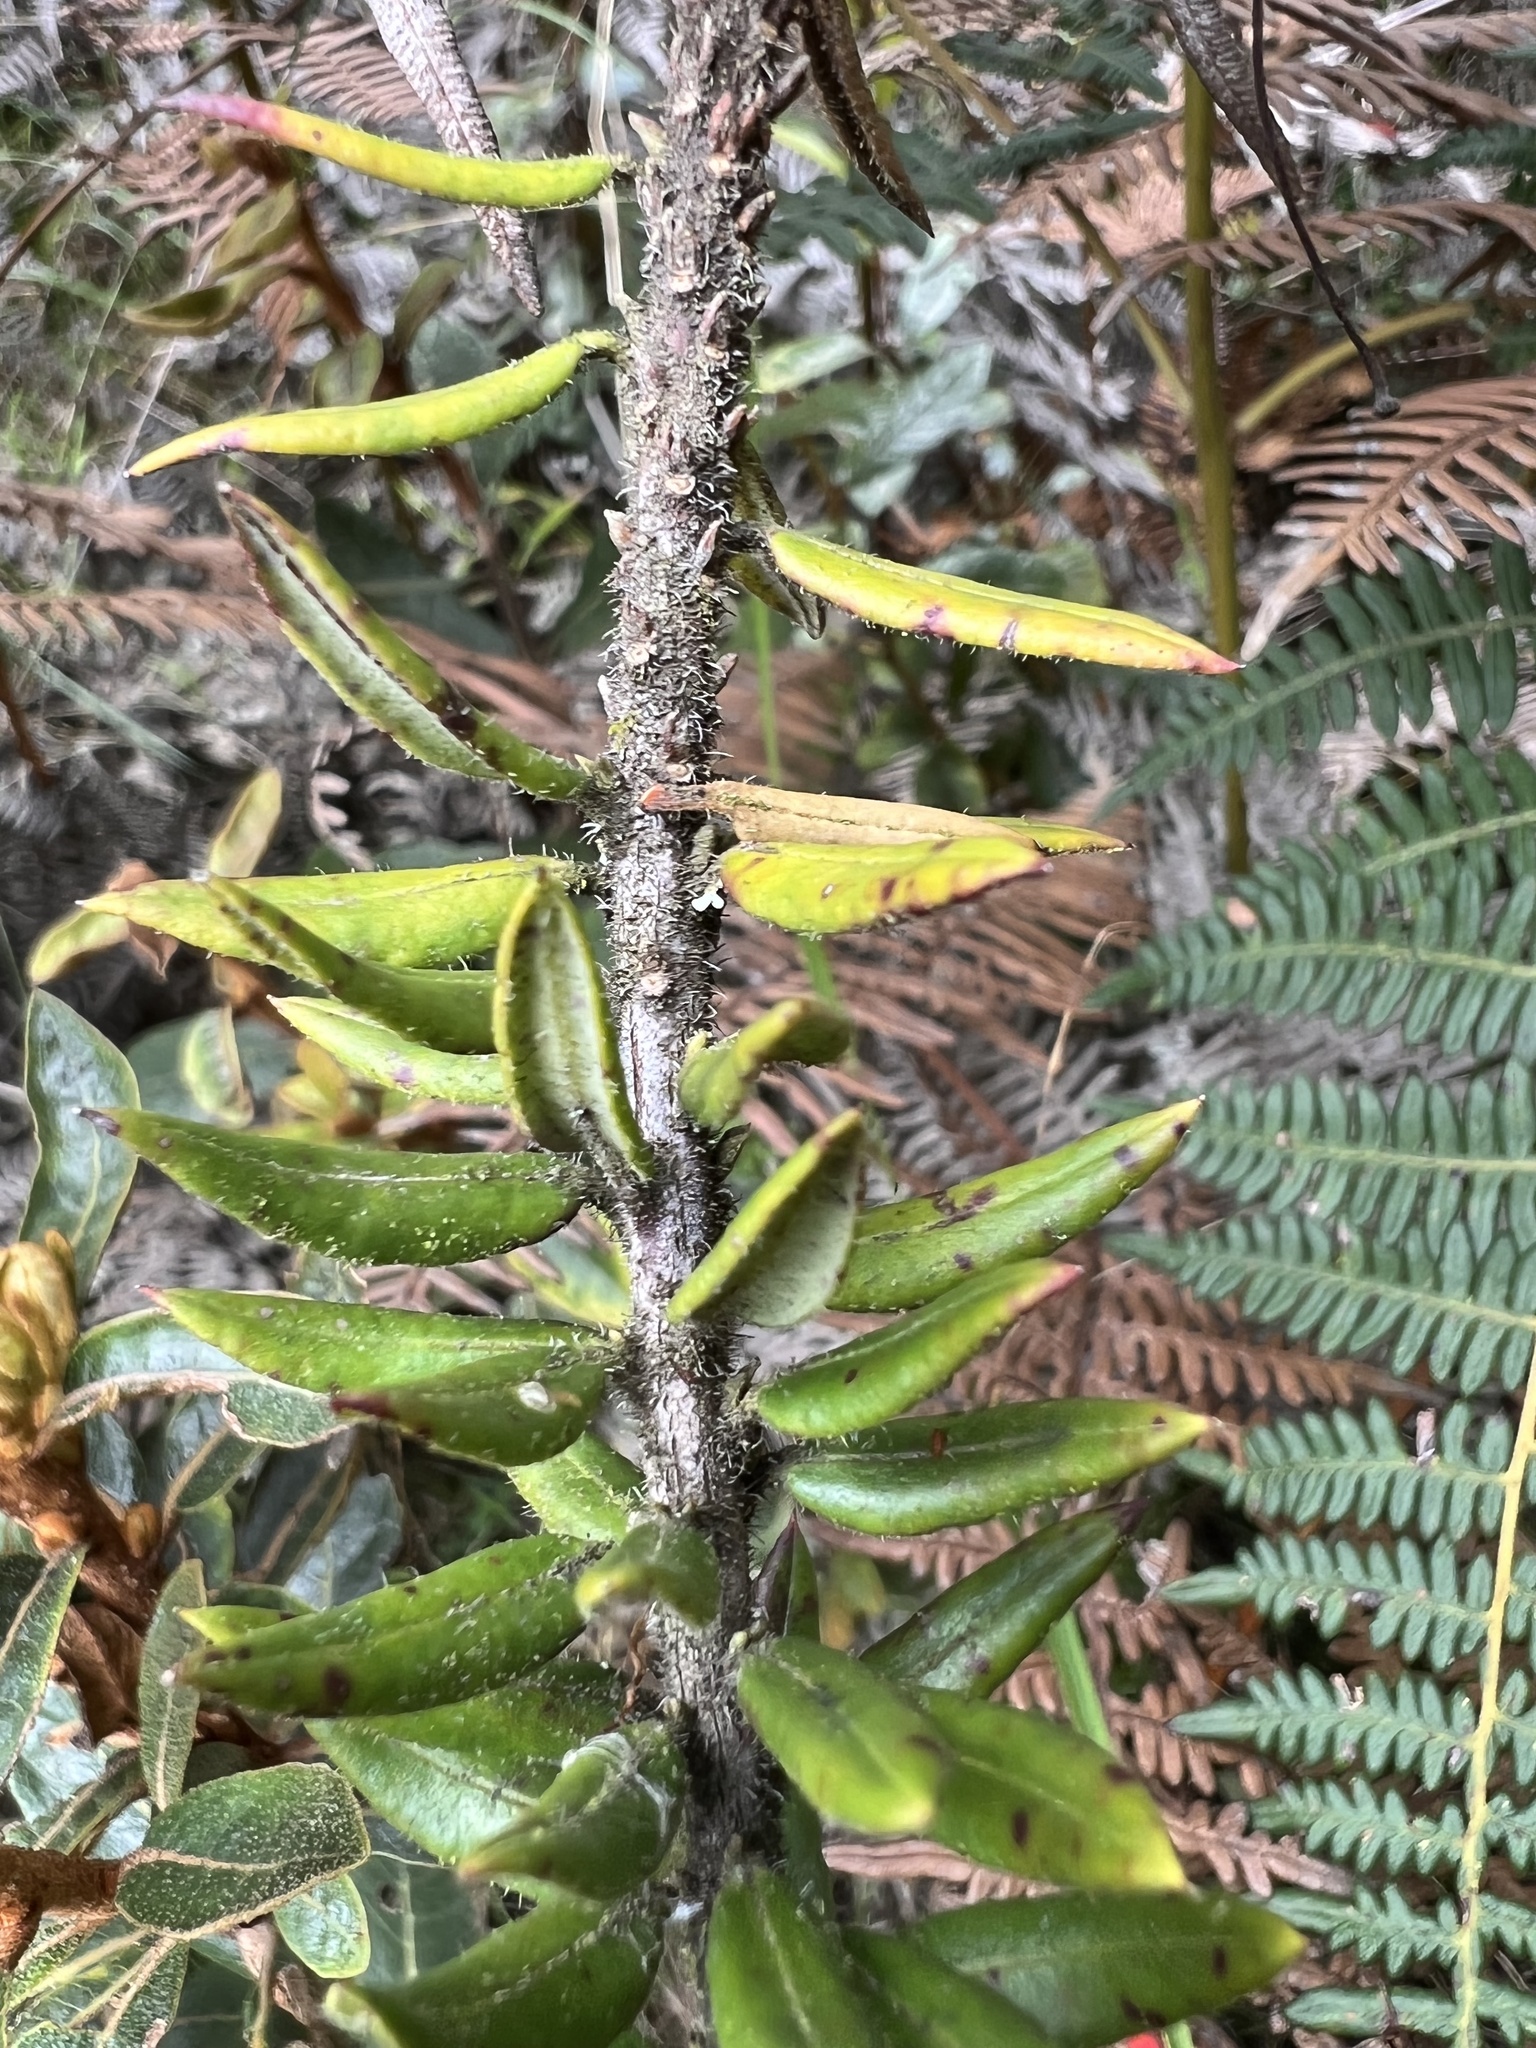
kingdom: Plantae
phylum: Tracheophyta
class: Magnoliopsida
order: Ericales
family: Ericaceae
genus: Bejaria
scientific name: Bejaria resinosa
